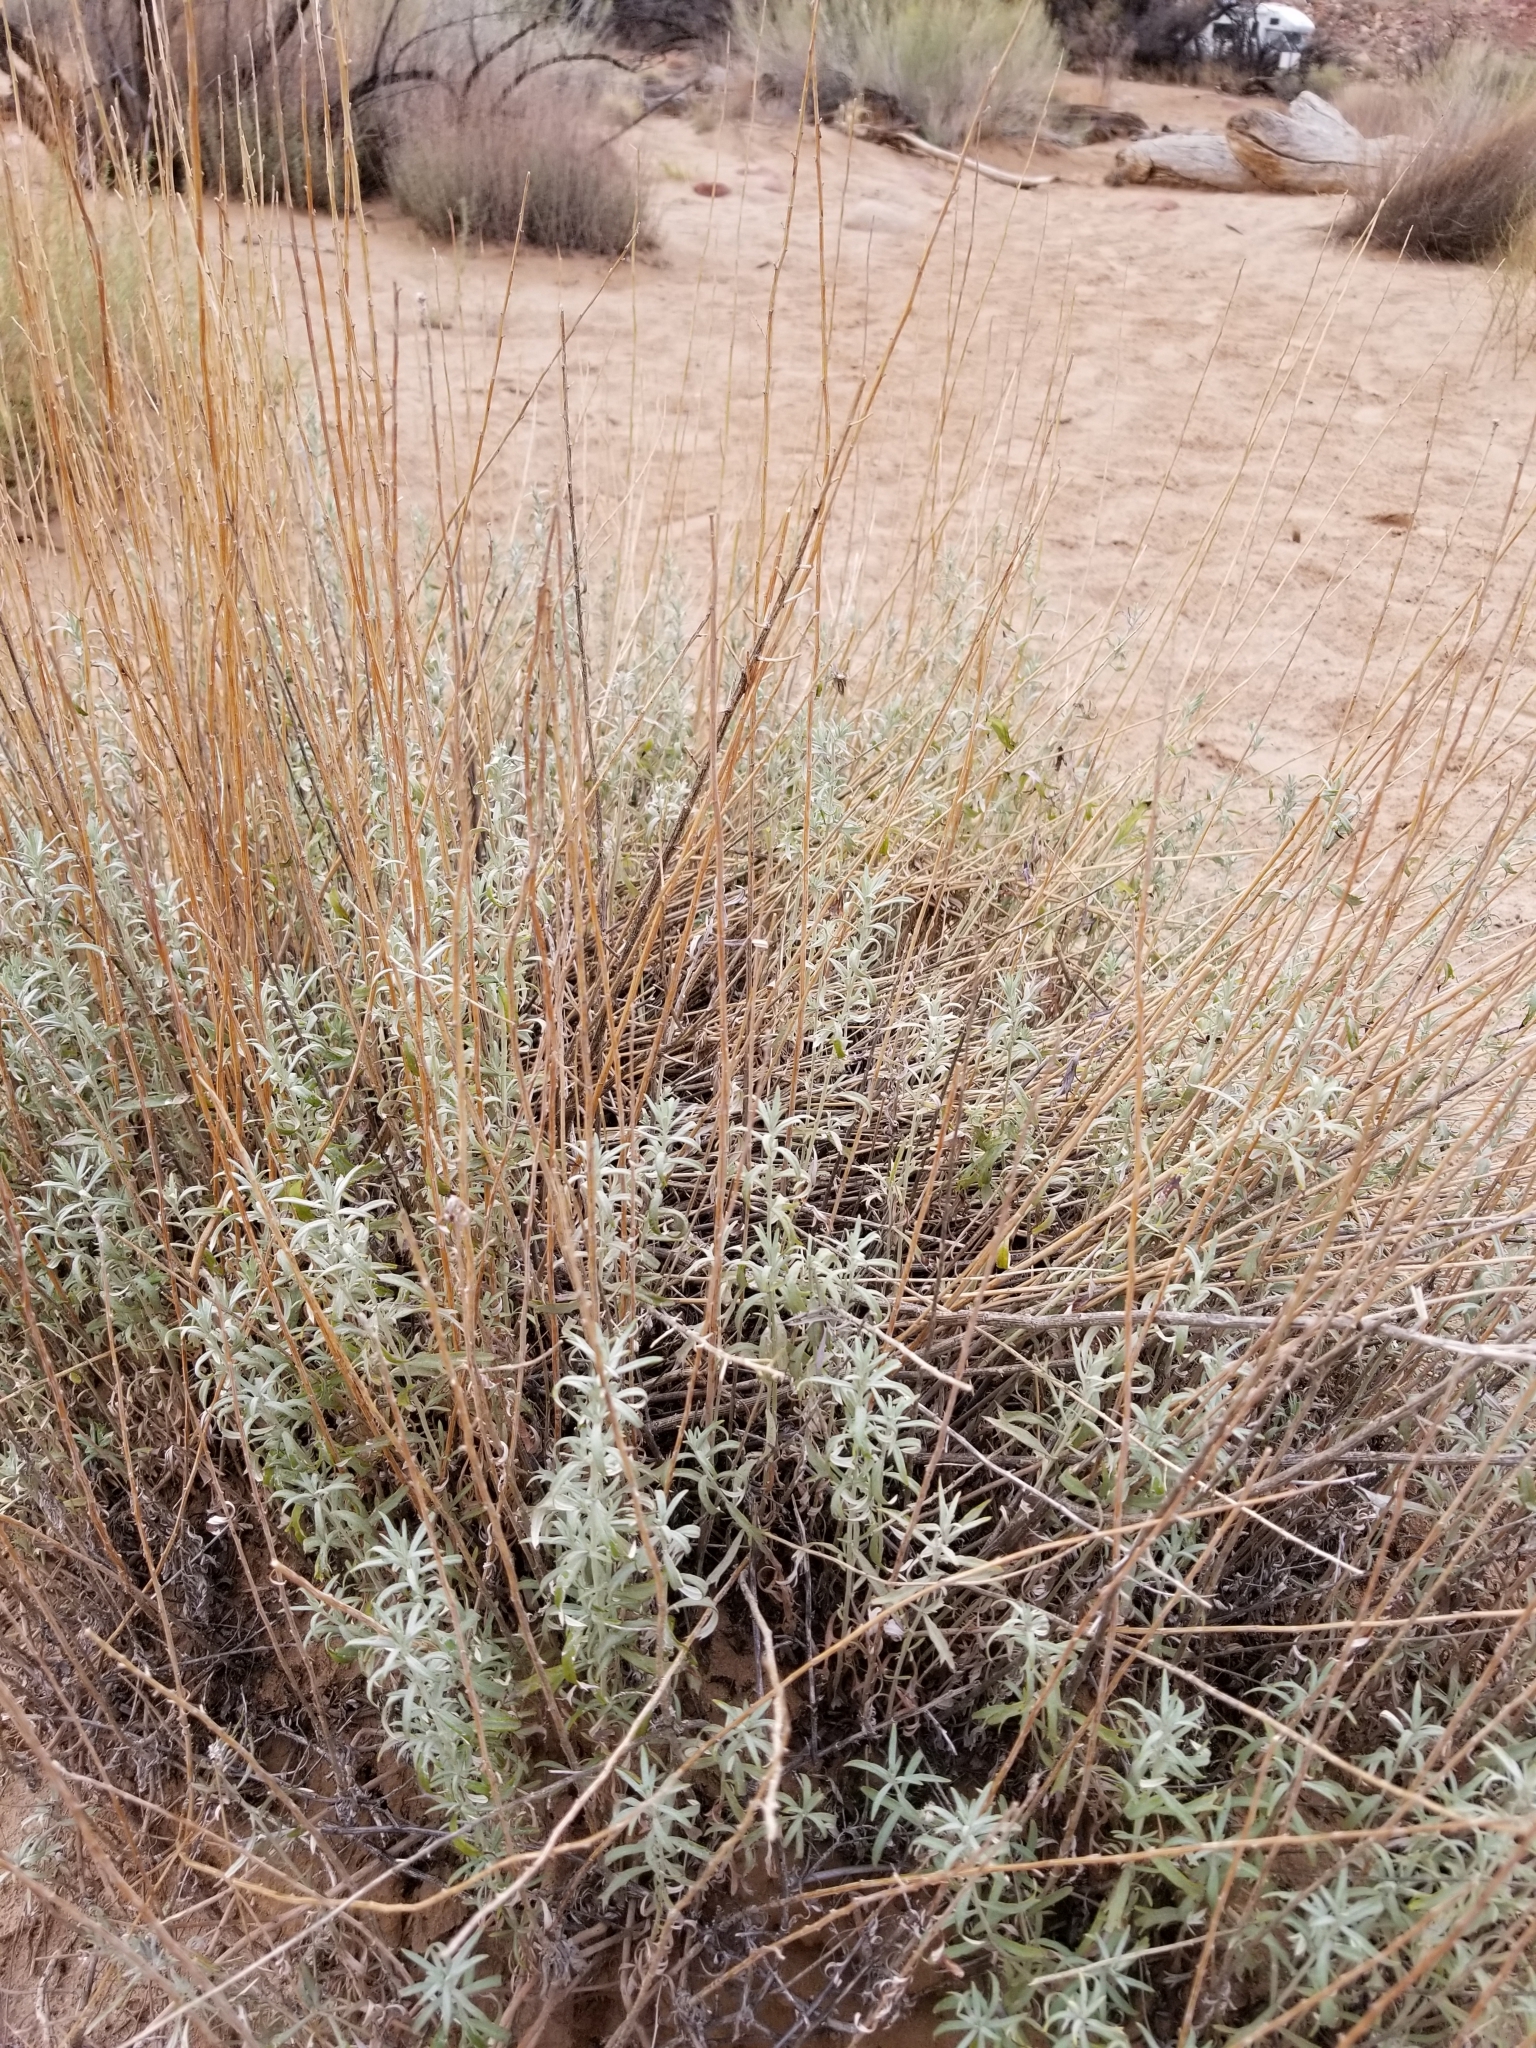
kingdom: Plantae
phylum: Tracheophyta
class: Magnoliopsida
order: Asterales
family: Asteraceae
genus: Artemisia
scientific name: Artemisia ludoviciana
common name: Western mugwort
